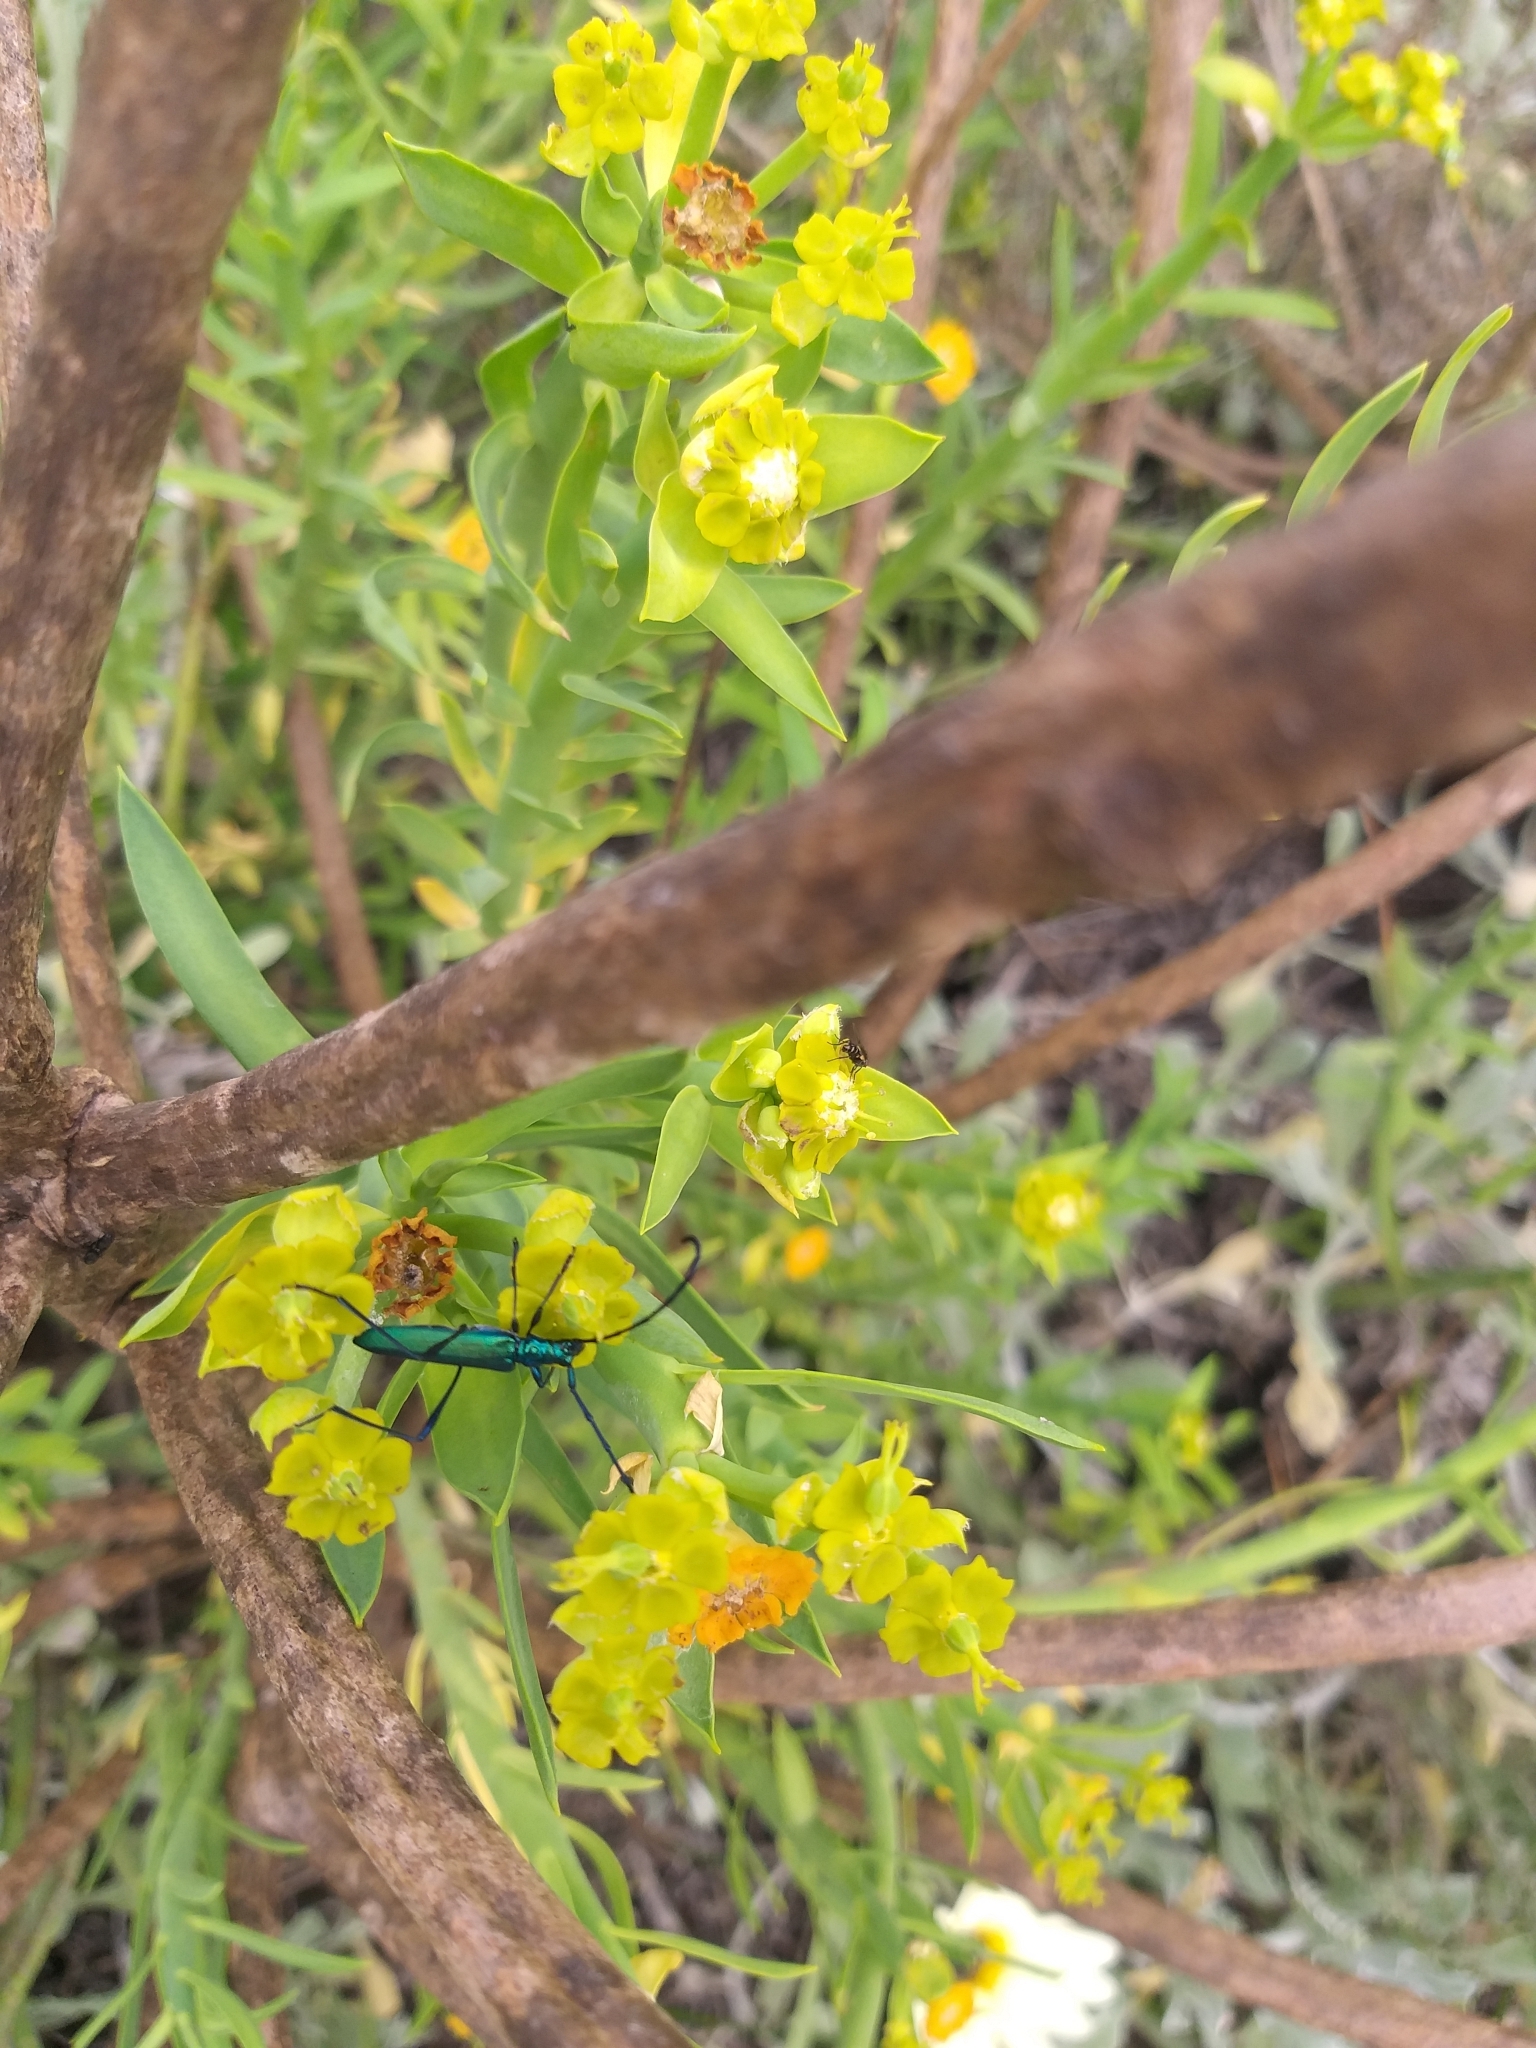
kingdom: Animalia
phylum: Arthropoda
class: Insecta
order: Coleoptera
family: Cerambycidae
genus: Promeces
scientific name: Promeces longipes
